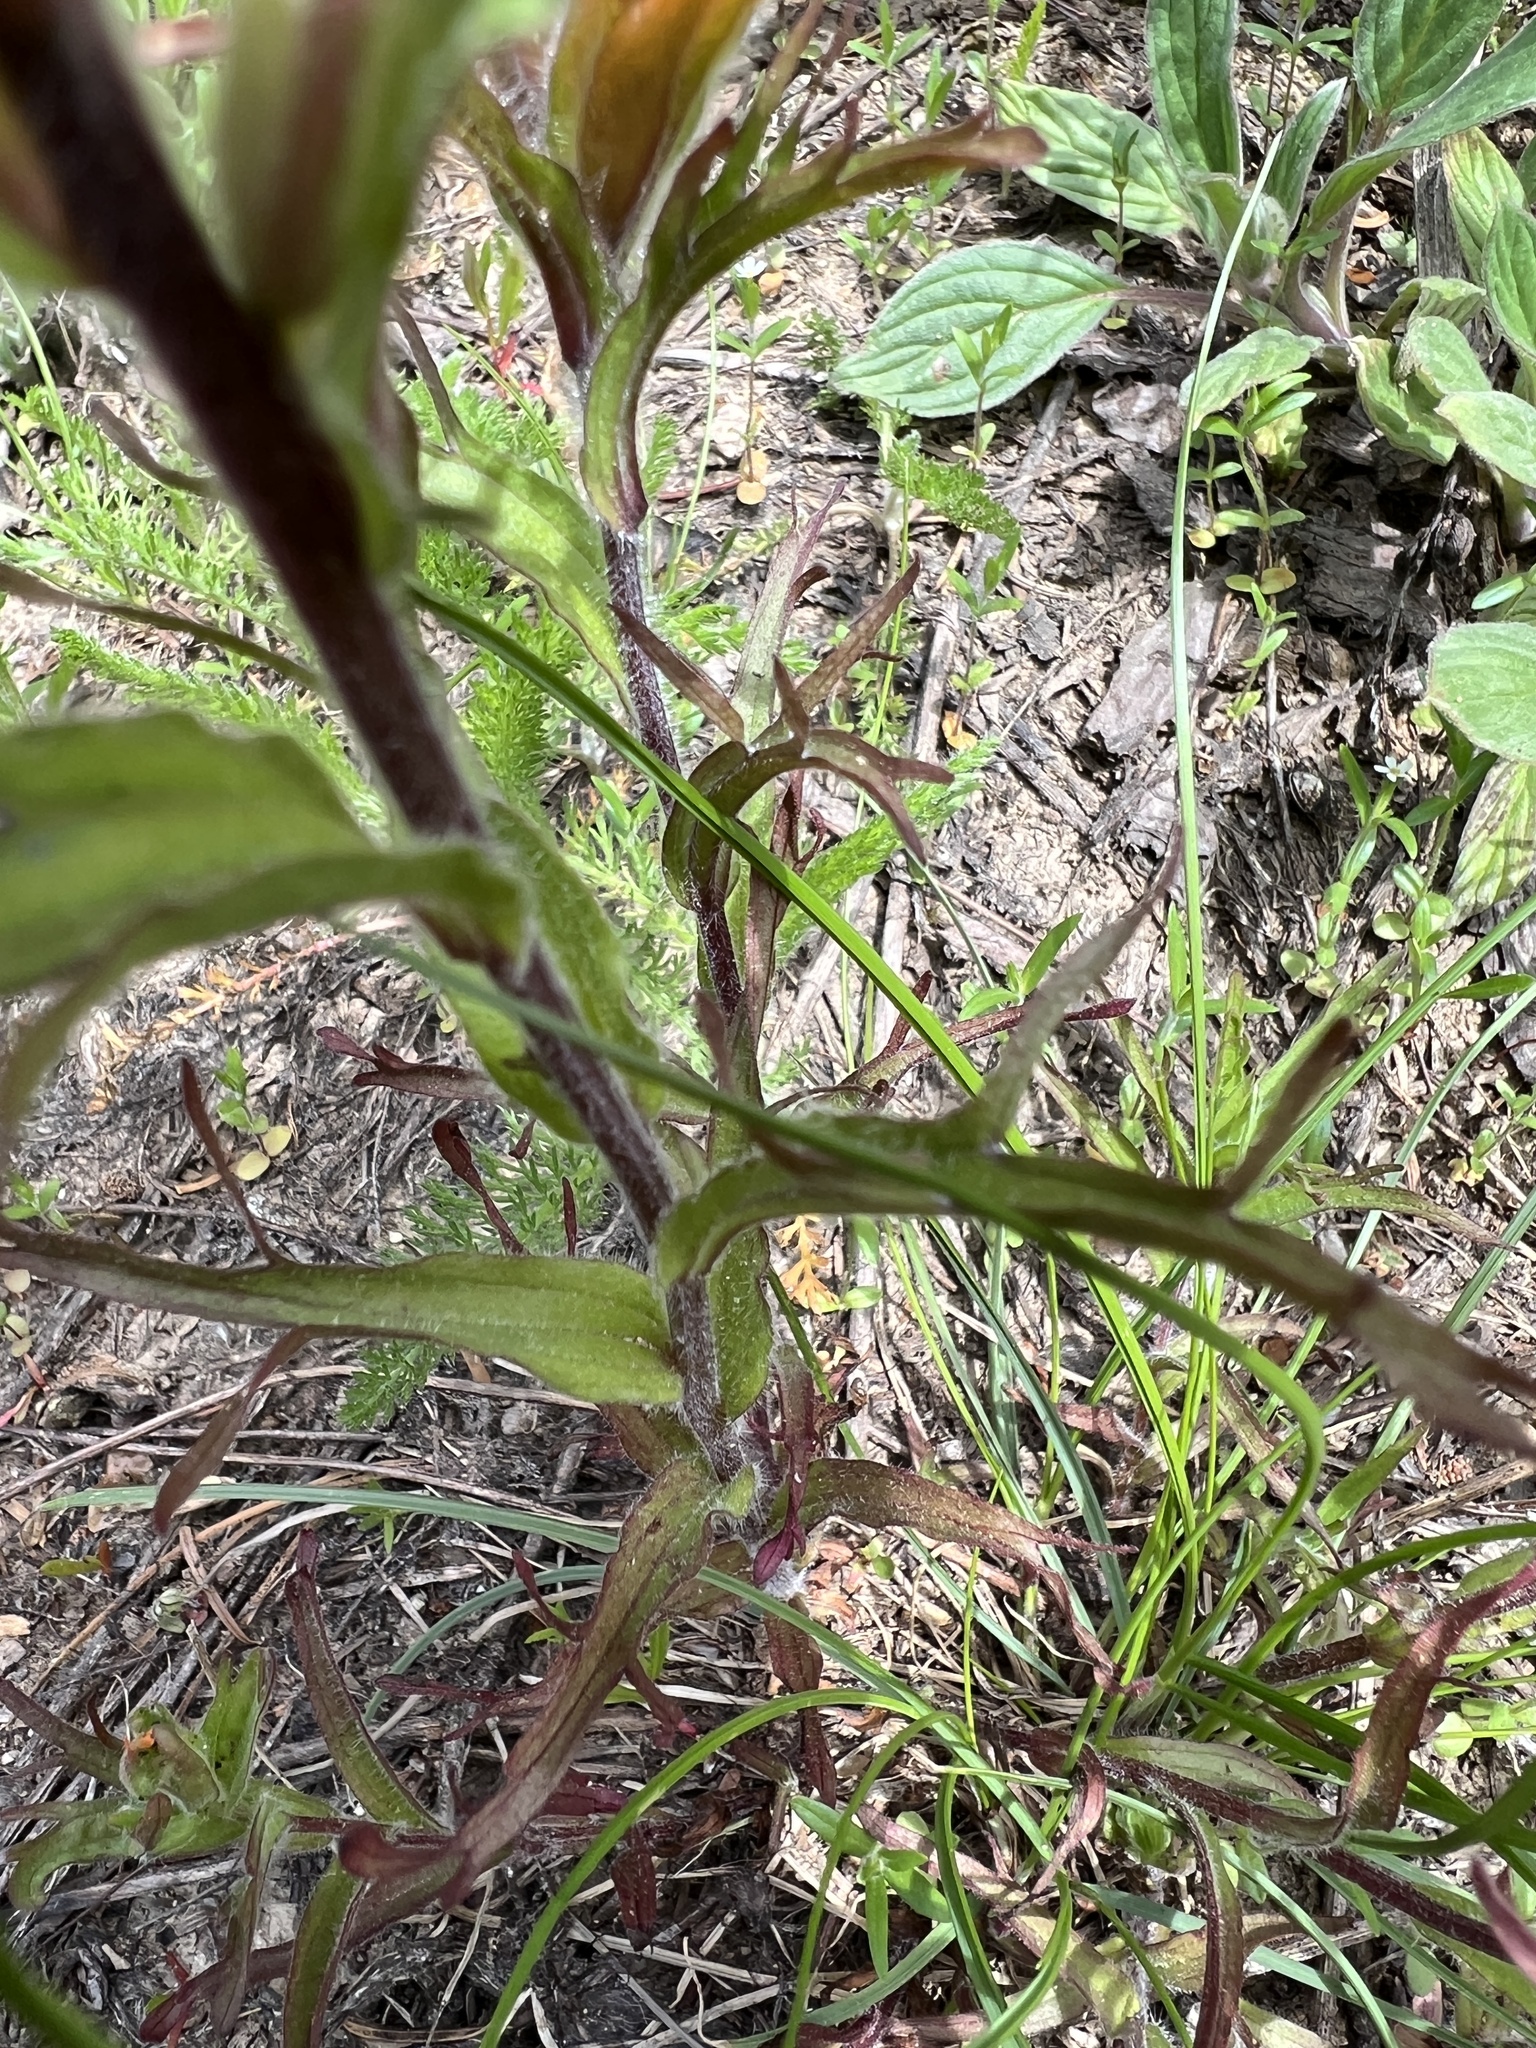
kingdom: Plantae
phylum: Tracheophyta
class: Magnoliopsida
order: Lamiales
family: Orobanchaceae
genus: Castilleja
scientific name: Castilleja hispida
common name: Bristly paintbrush
